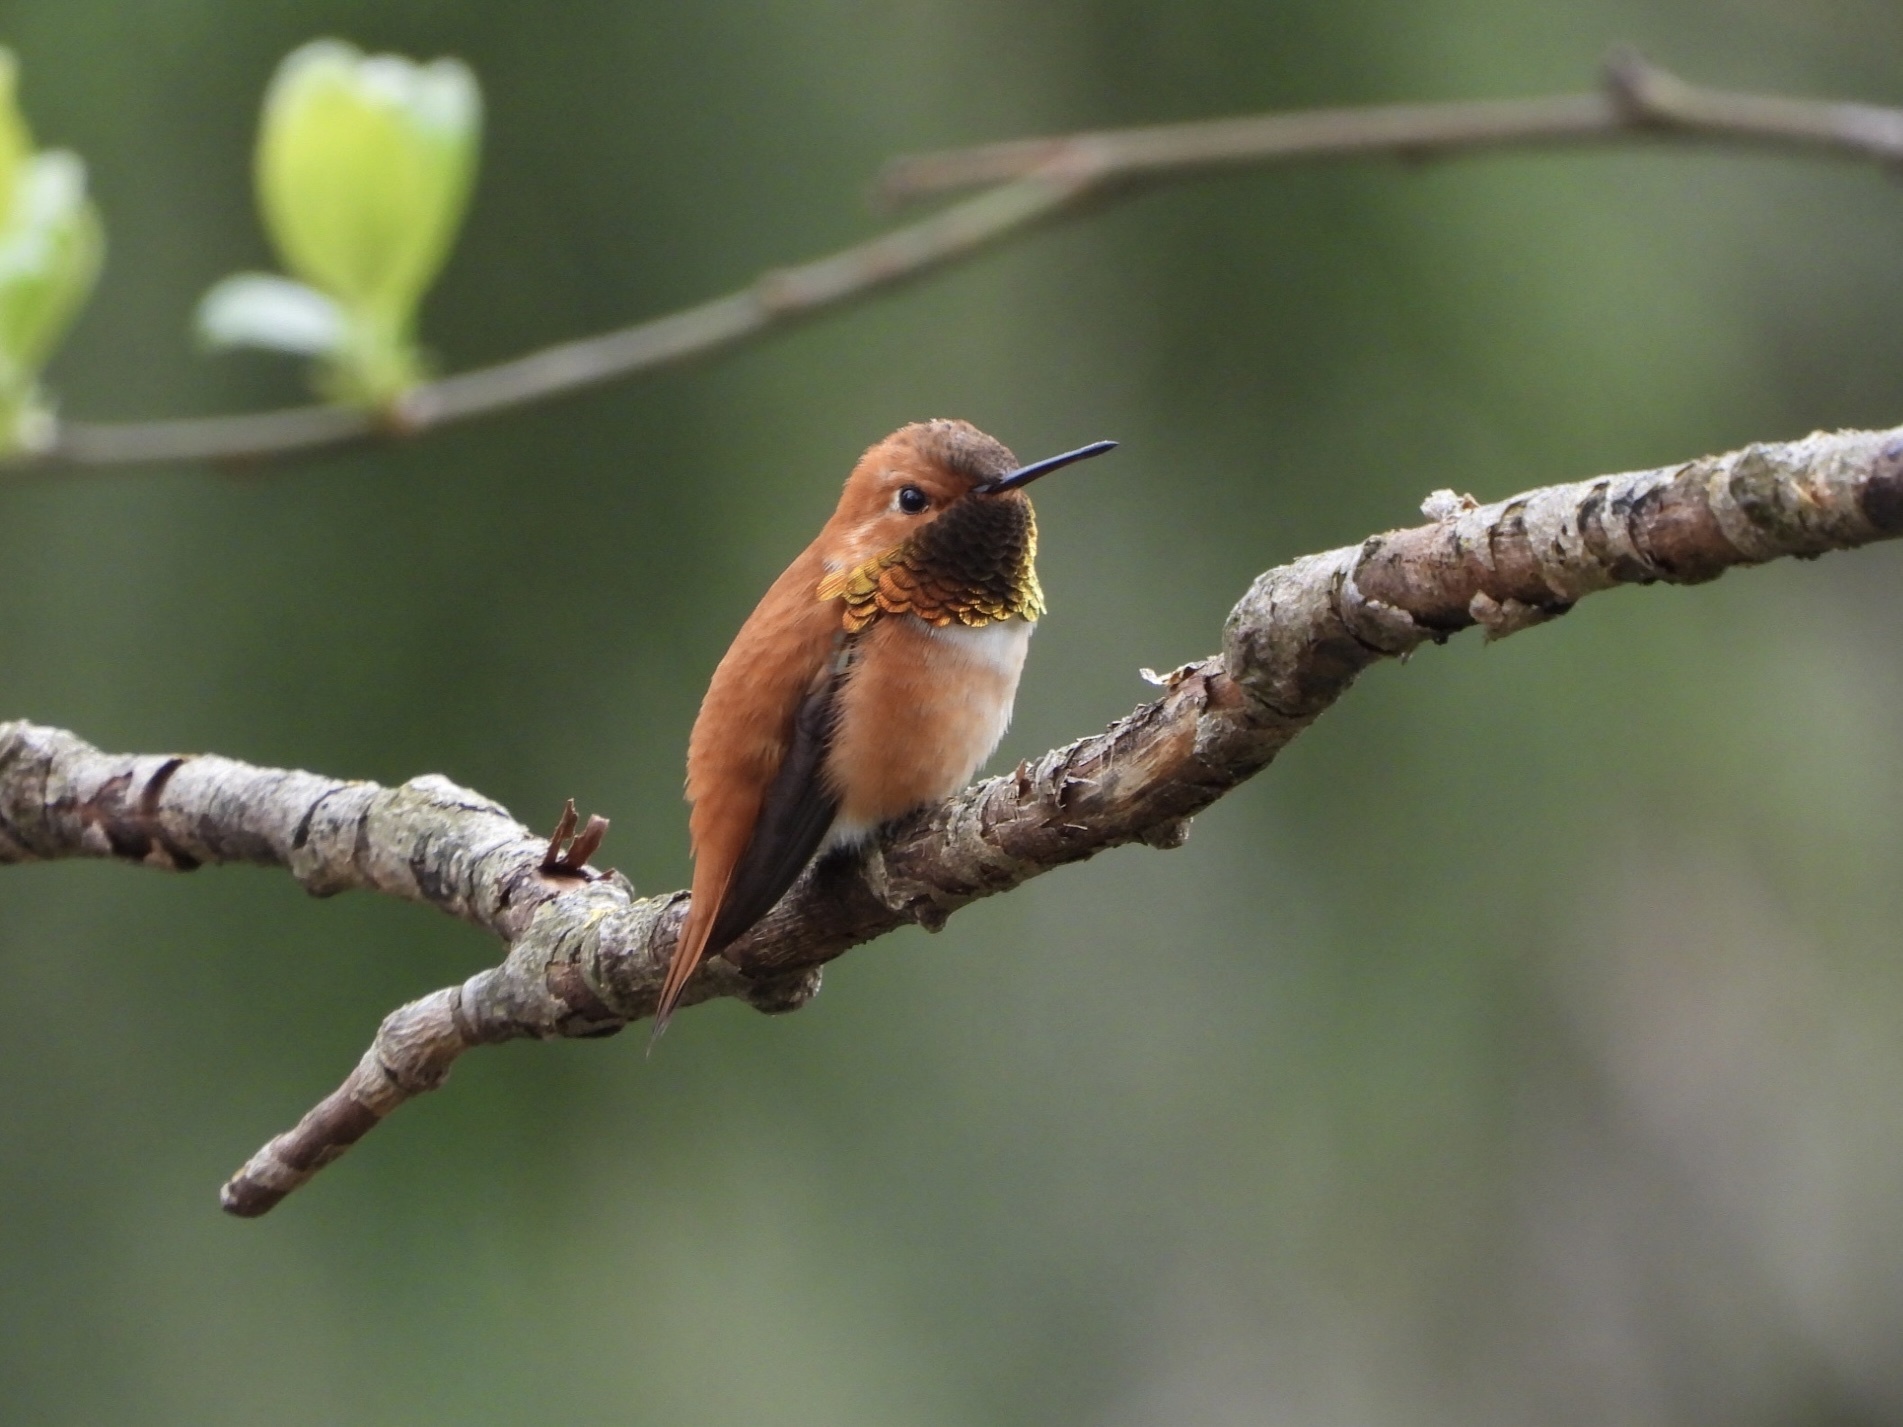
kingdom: Animalia
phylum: Chordata
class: Aves
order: Apodiformes
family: Trochilidae
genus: Selasphorus
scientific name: Selasphorus rufus
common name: Rufous hummingbird
